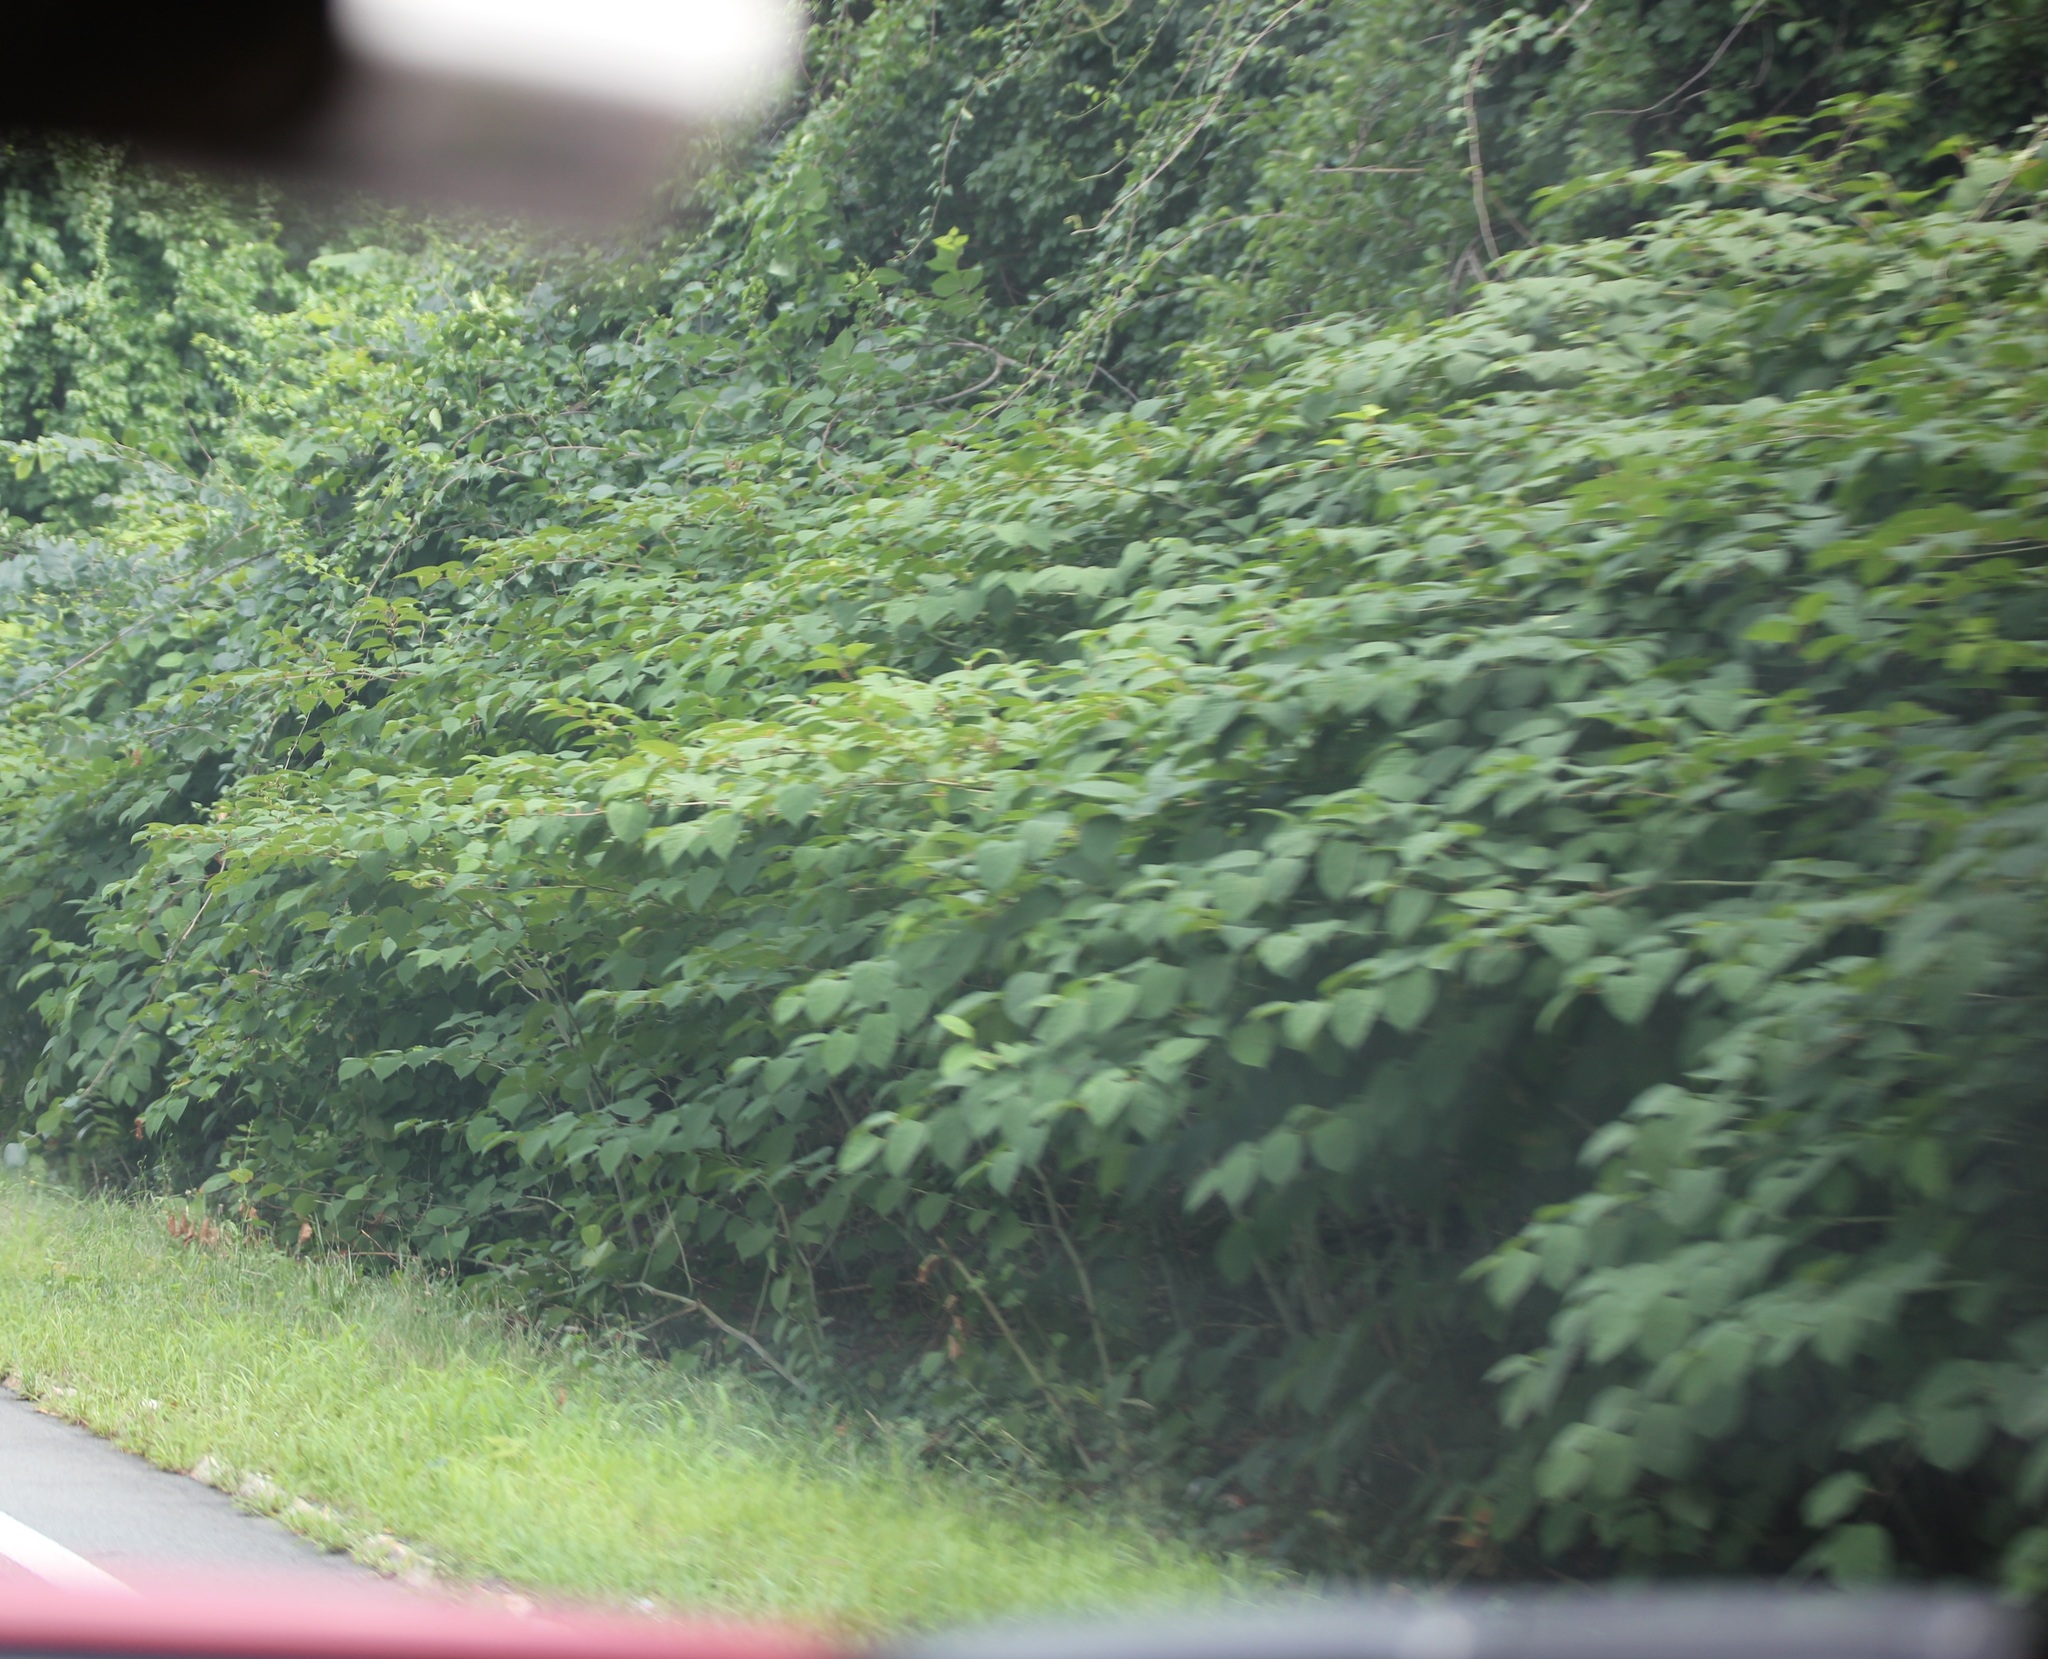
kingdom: Plantae
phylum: Tracheophyta
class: Magnoliopsida
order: Caryophyllales
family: Polygonaceae
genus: Reynoutria
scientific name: Reynoutria japonica
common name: Japanese knotweed
